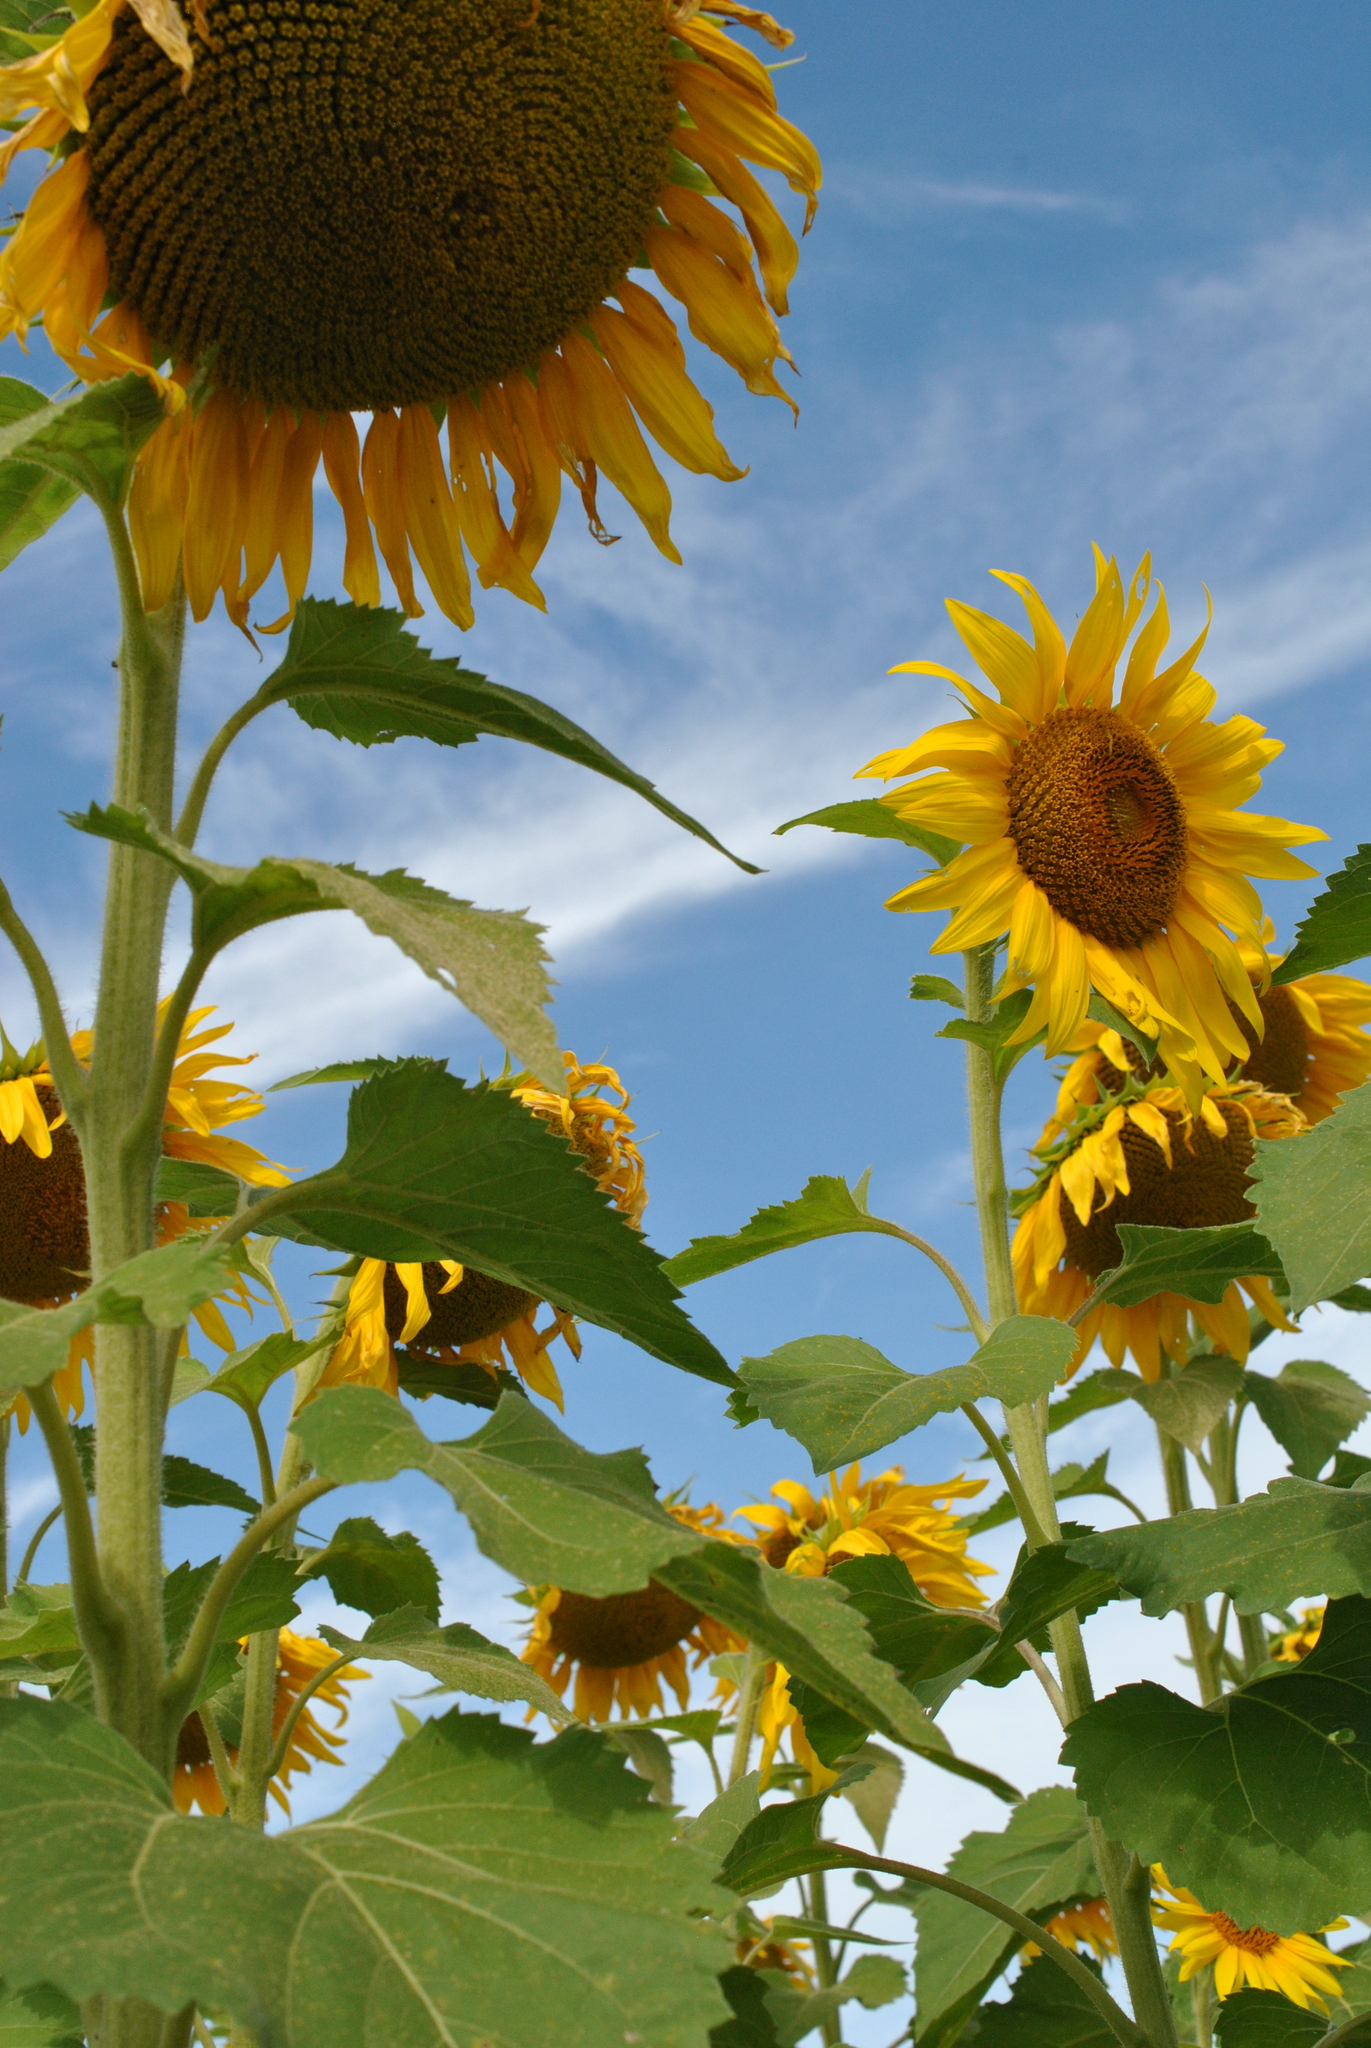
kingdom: Plantae
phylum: Tracheophyta
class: Magnoliopsida
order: Asterales
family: Asteraceae
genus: Helianthus
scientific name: Helianthus annuus
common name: Sunflower
